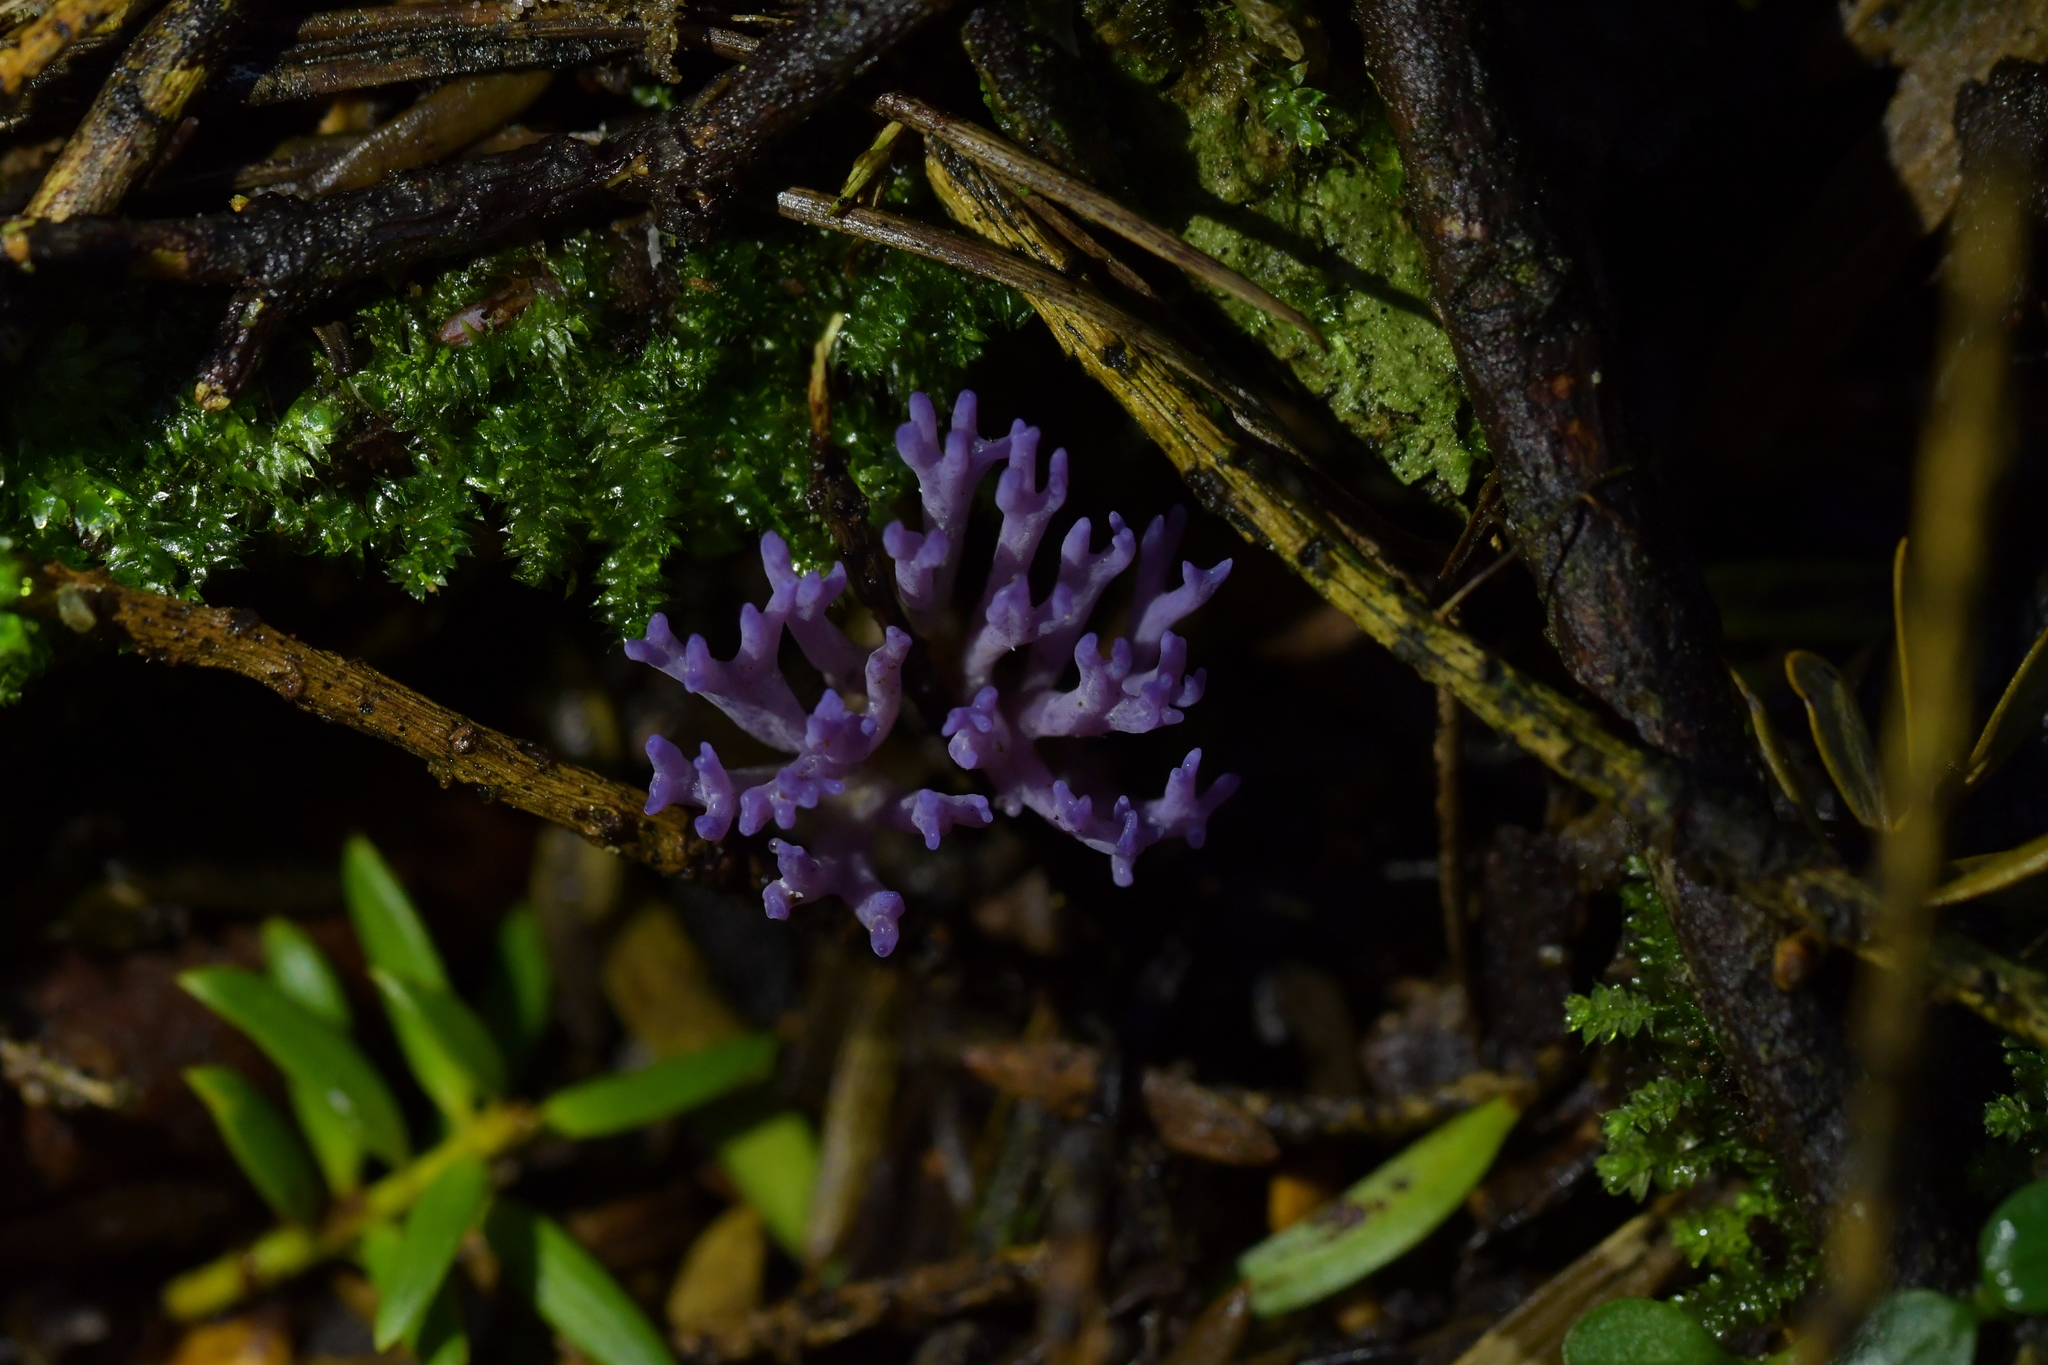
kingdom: Fungi
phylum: Basidiomycota
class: Agaricomycetes
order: Agaricales
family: Clavariaceae
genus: Ramariopsis
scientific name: Ramariopsis pulchella
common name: Lilac coral
